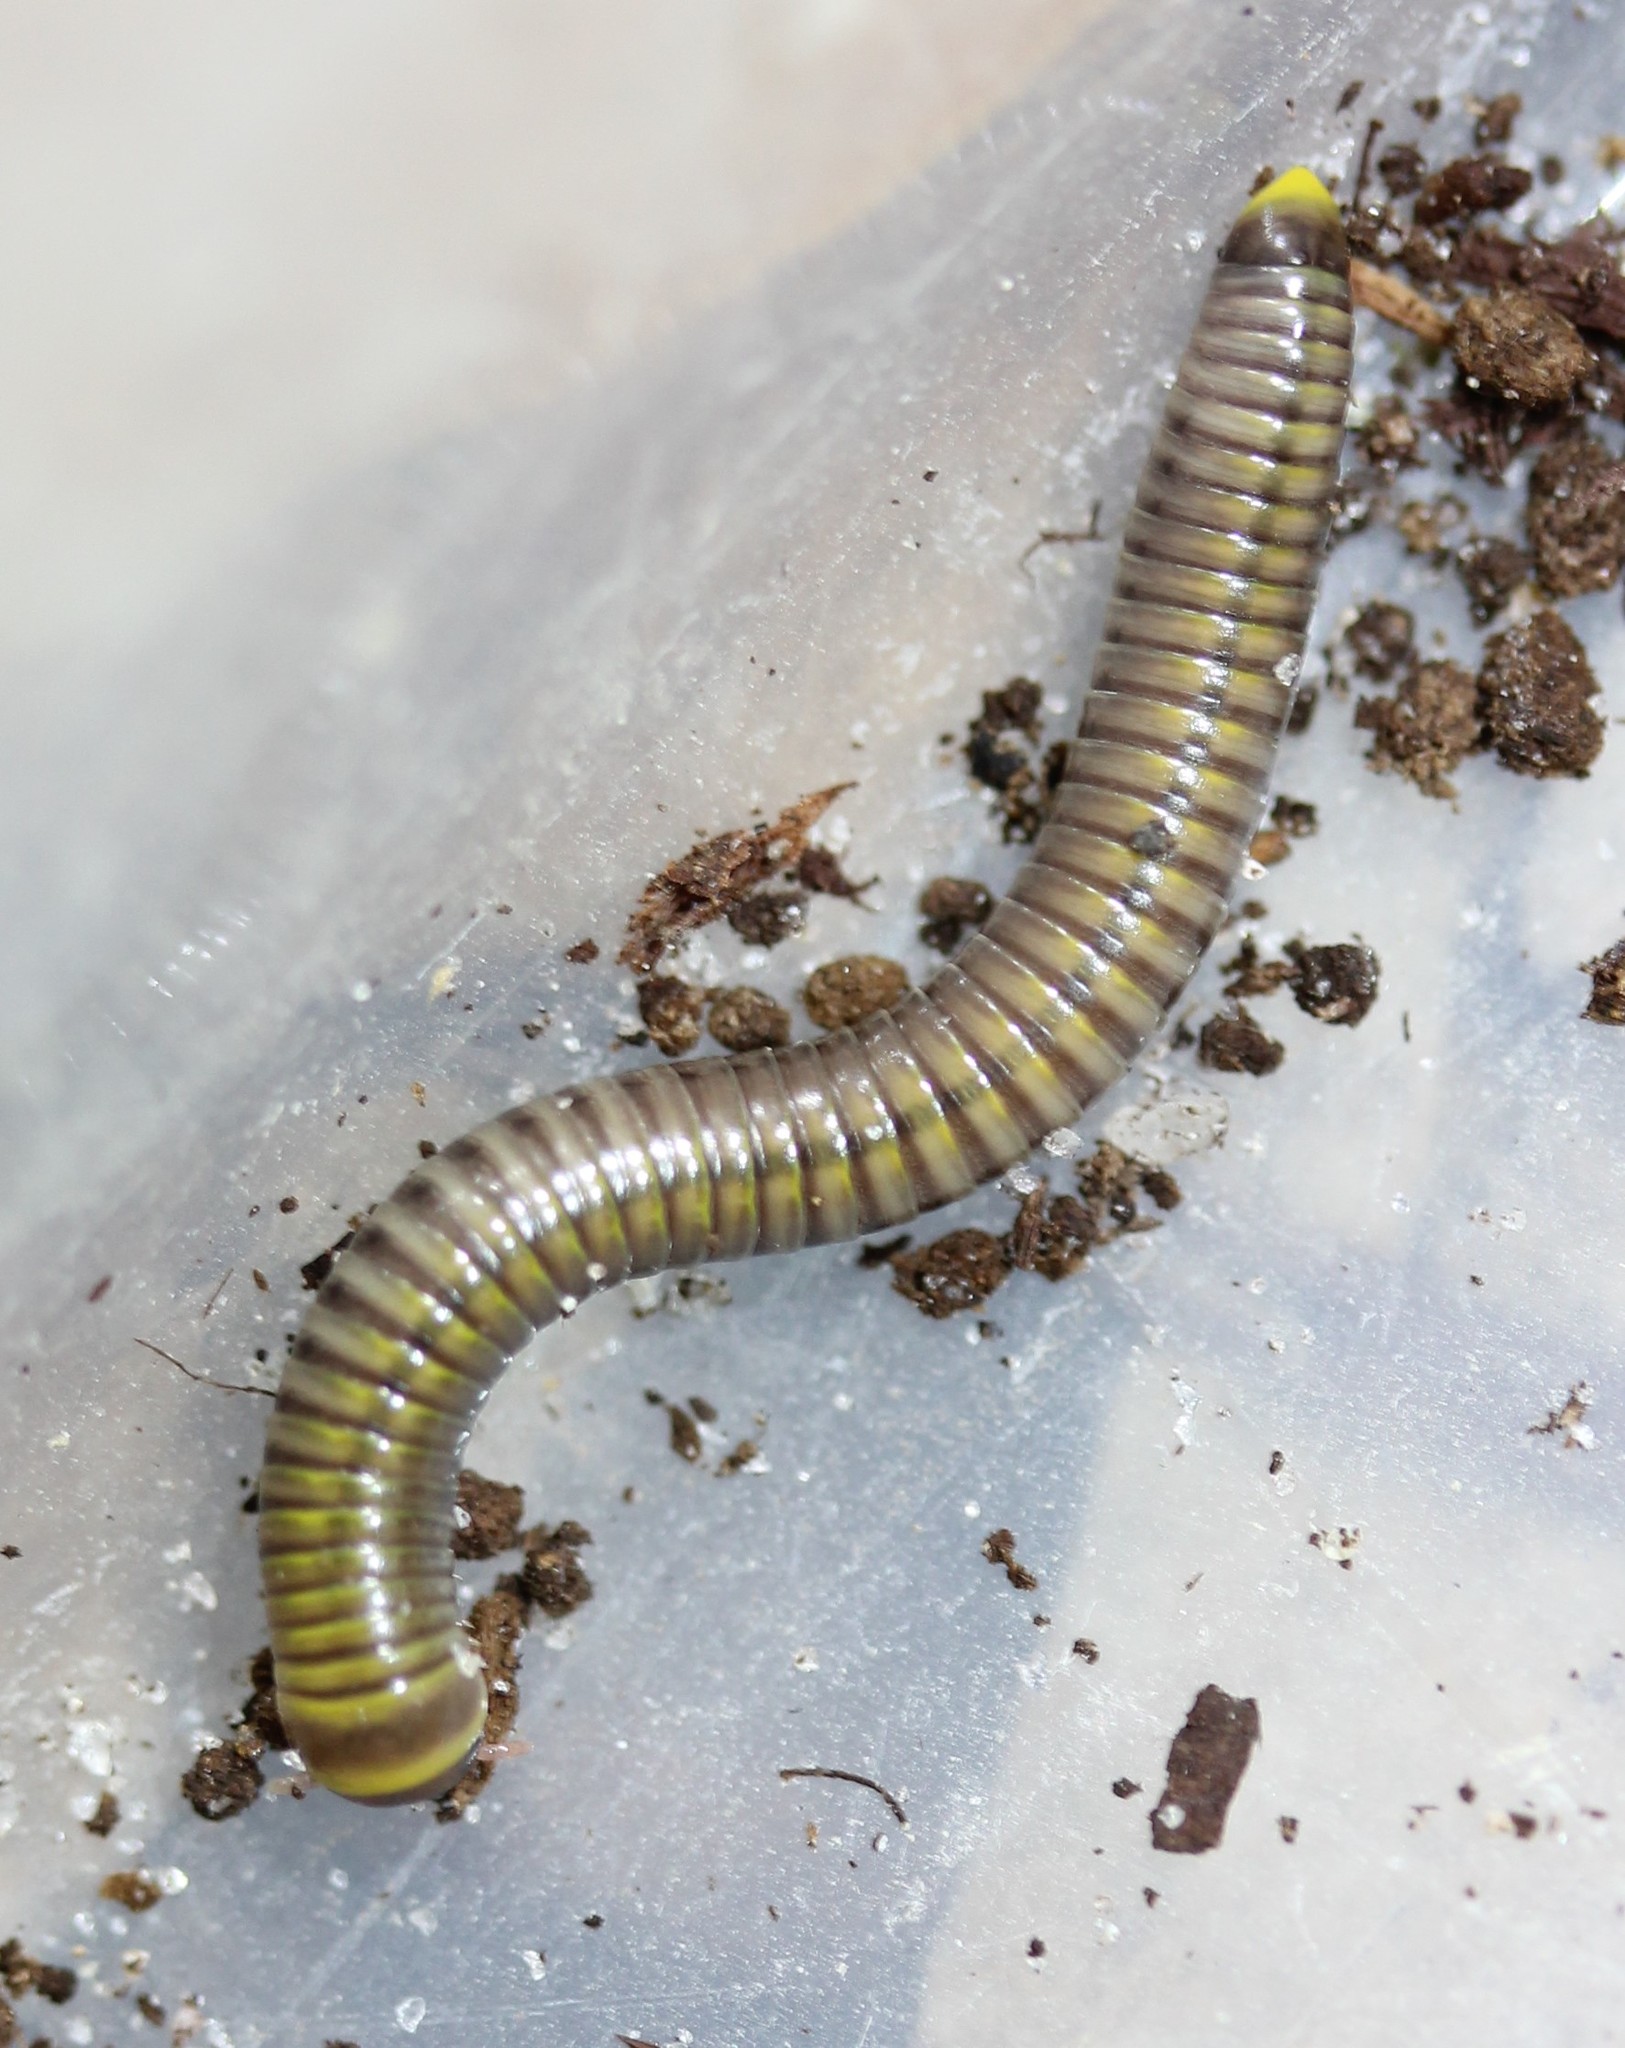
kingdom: Animalia
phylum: Arthropoda
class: Diplopoda
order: Spirobolida
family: Rhinocricidae
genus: Anadenobolus
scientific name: Anadenobolus monilicornis
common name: Caribbean millipede
